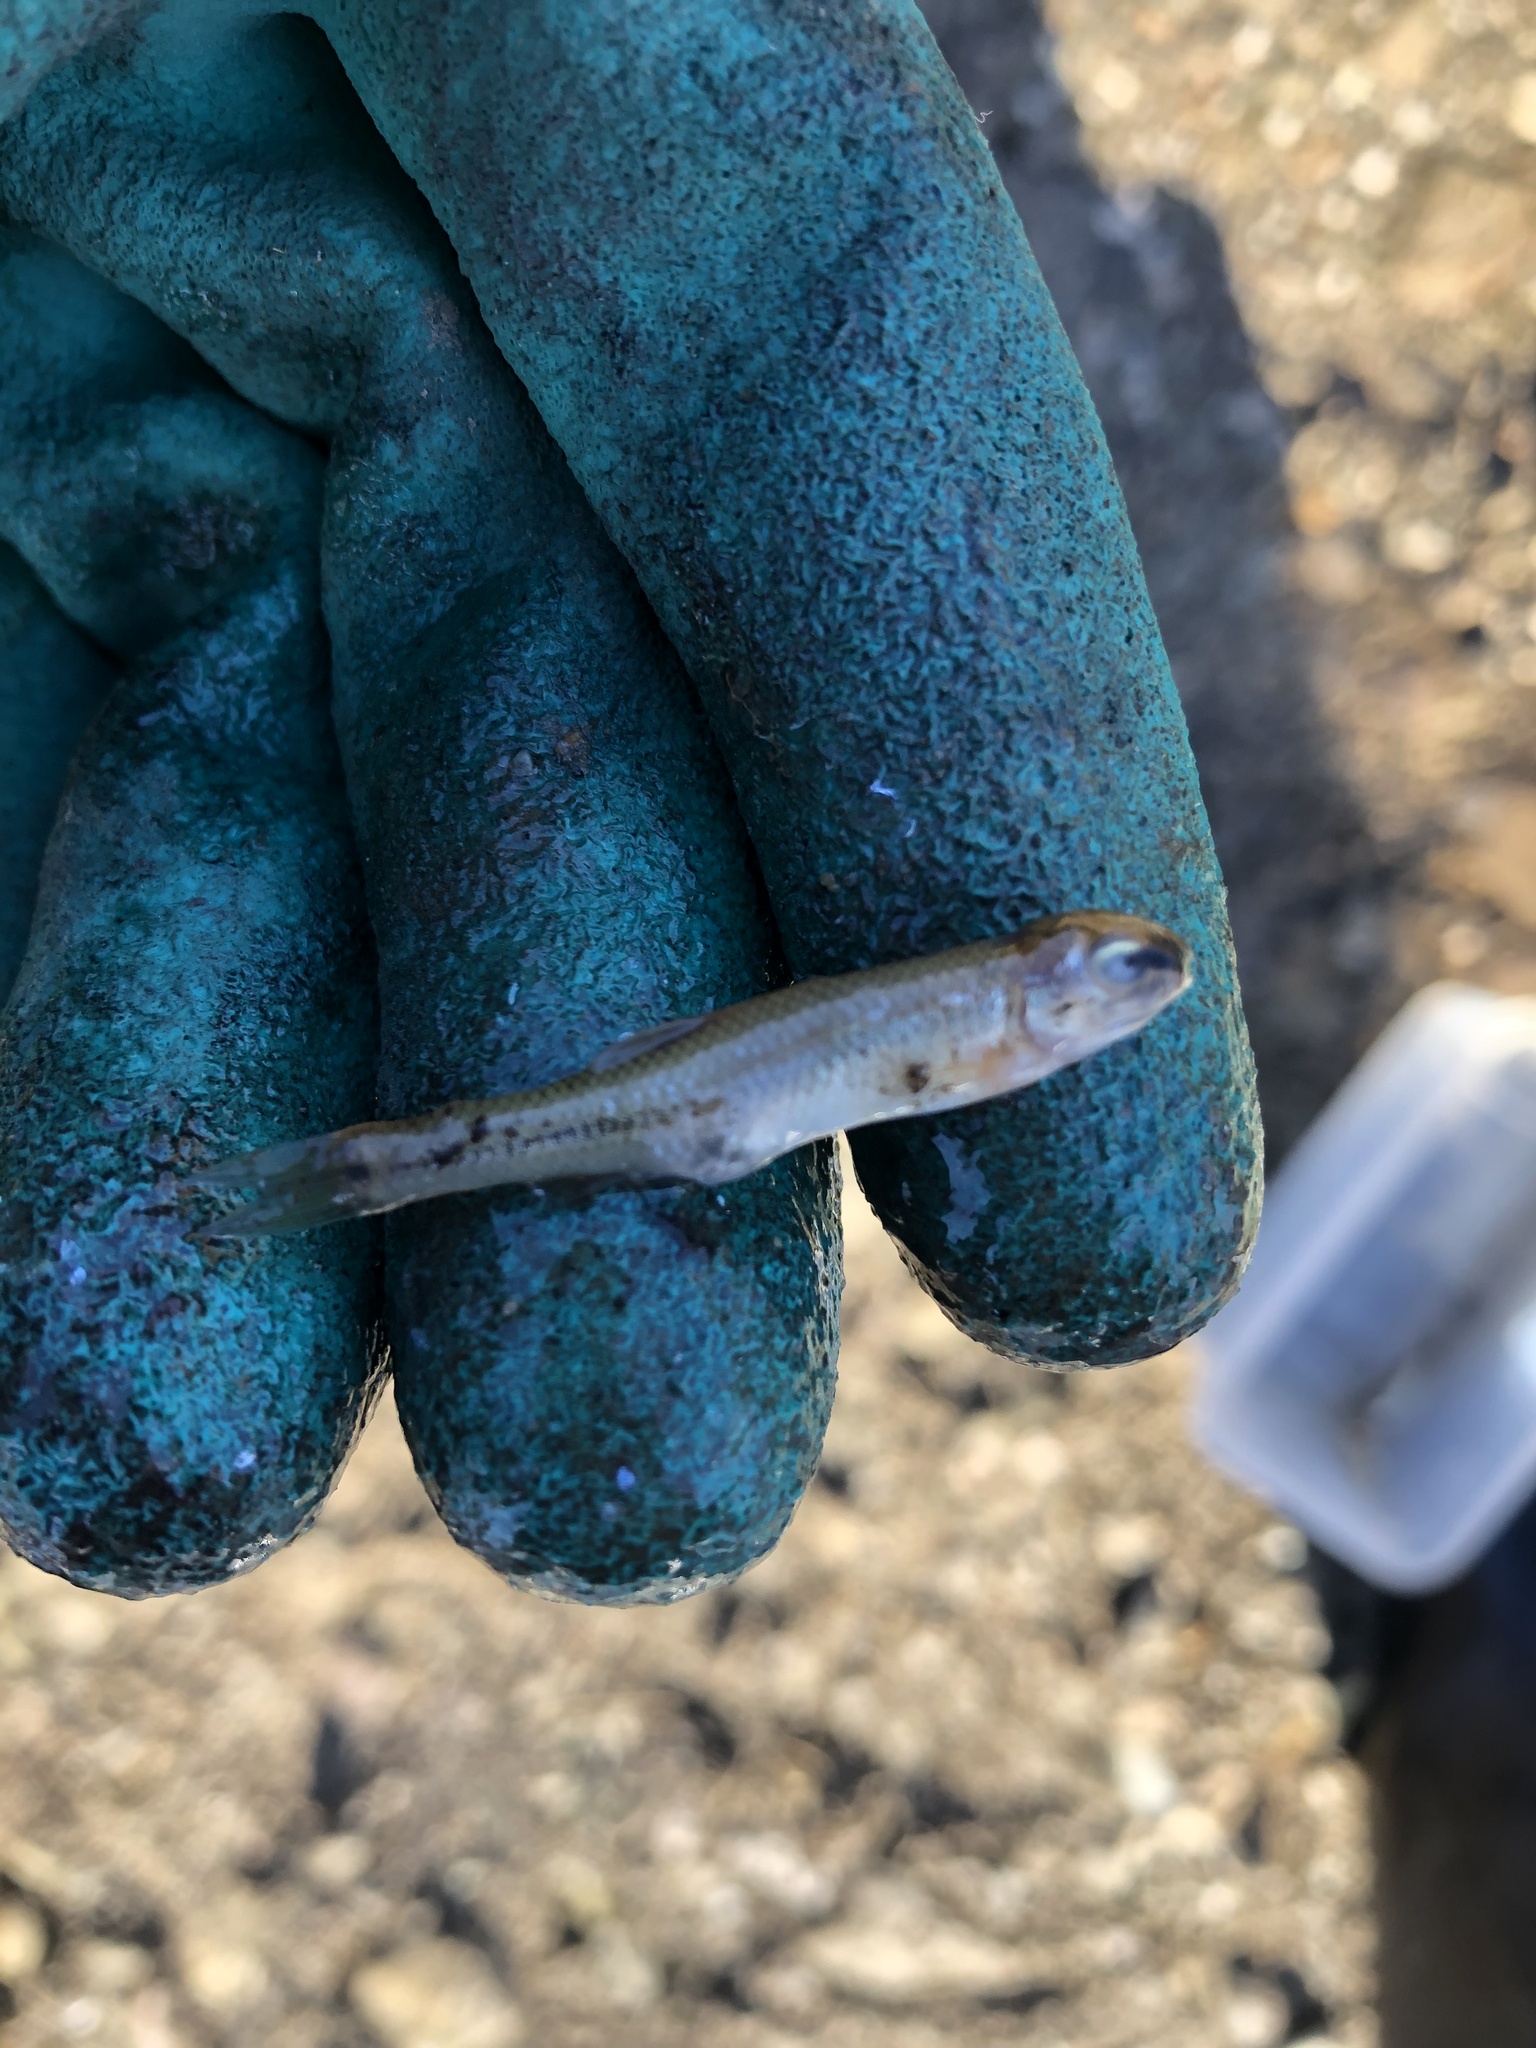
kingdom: Animalia
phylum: Chordata
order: Cypriniformes
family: Cyprinidae
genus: Pimephales
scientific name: Pimephales notatus
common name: Bluntnose minnow
